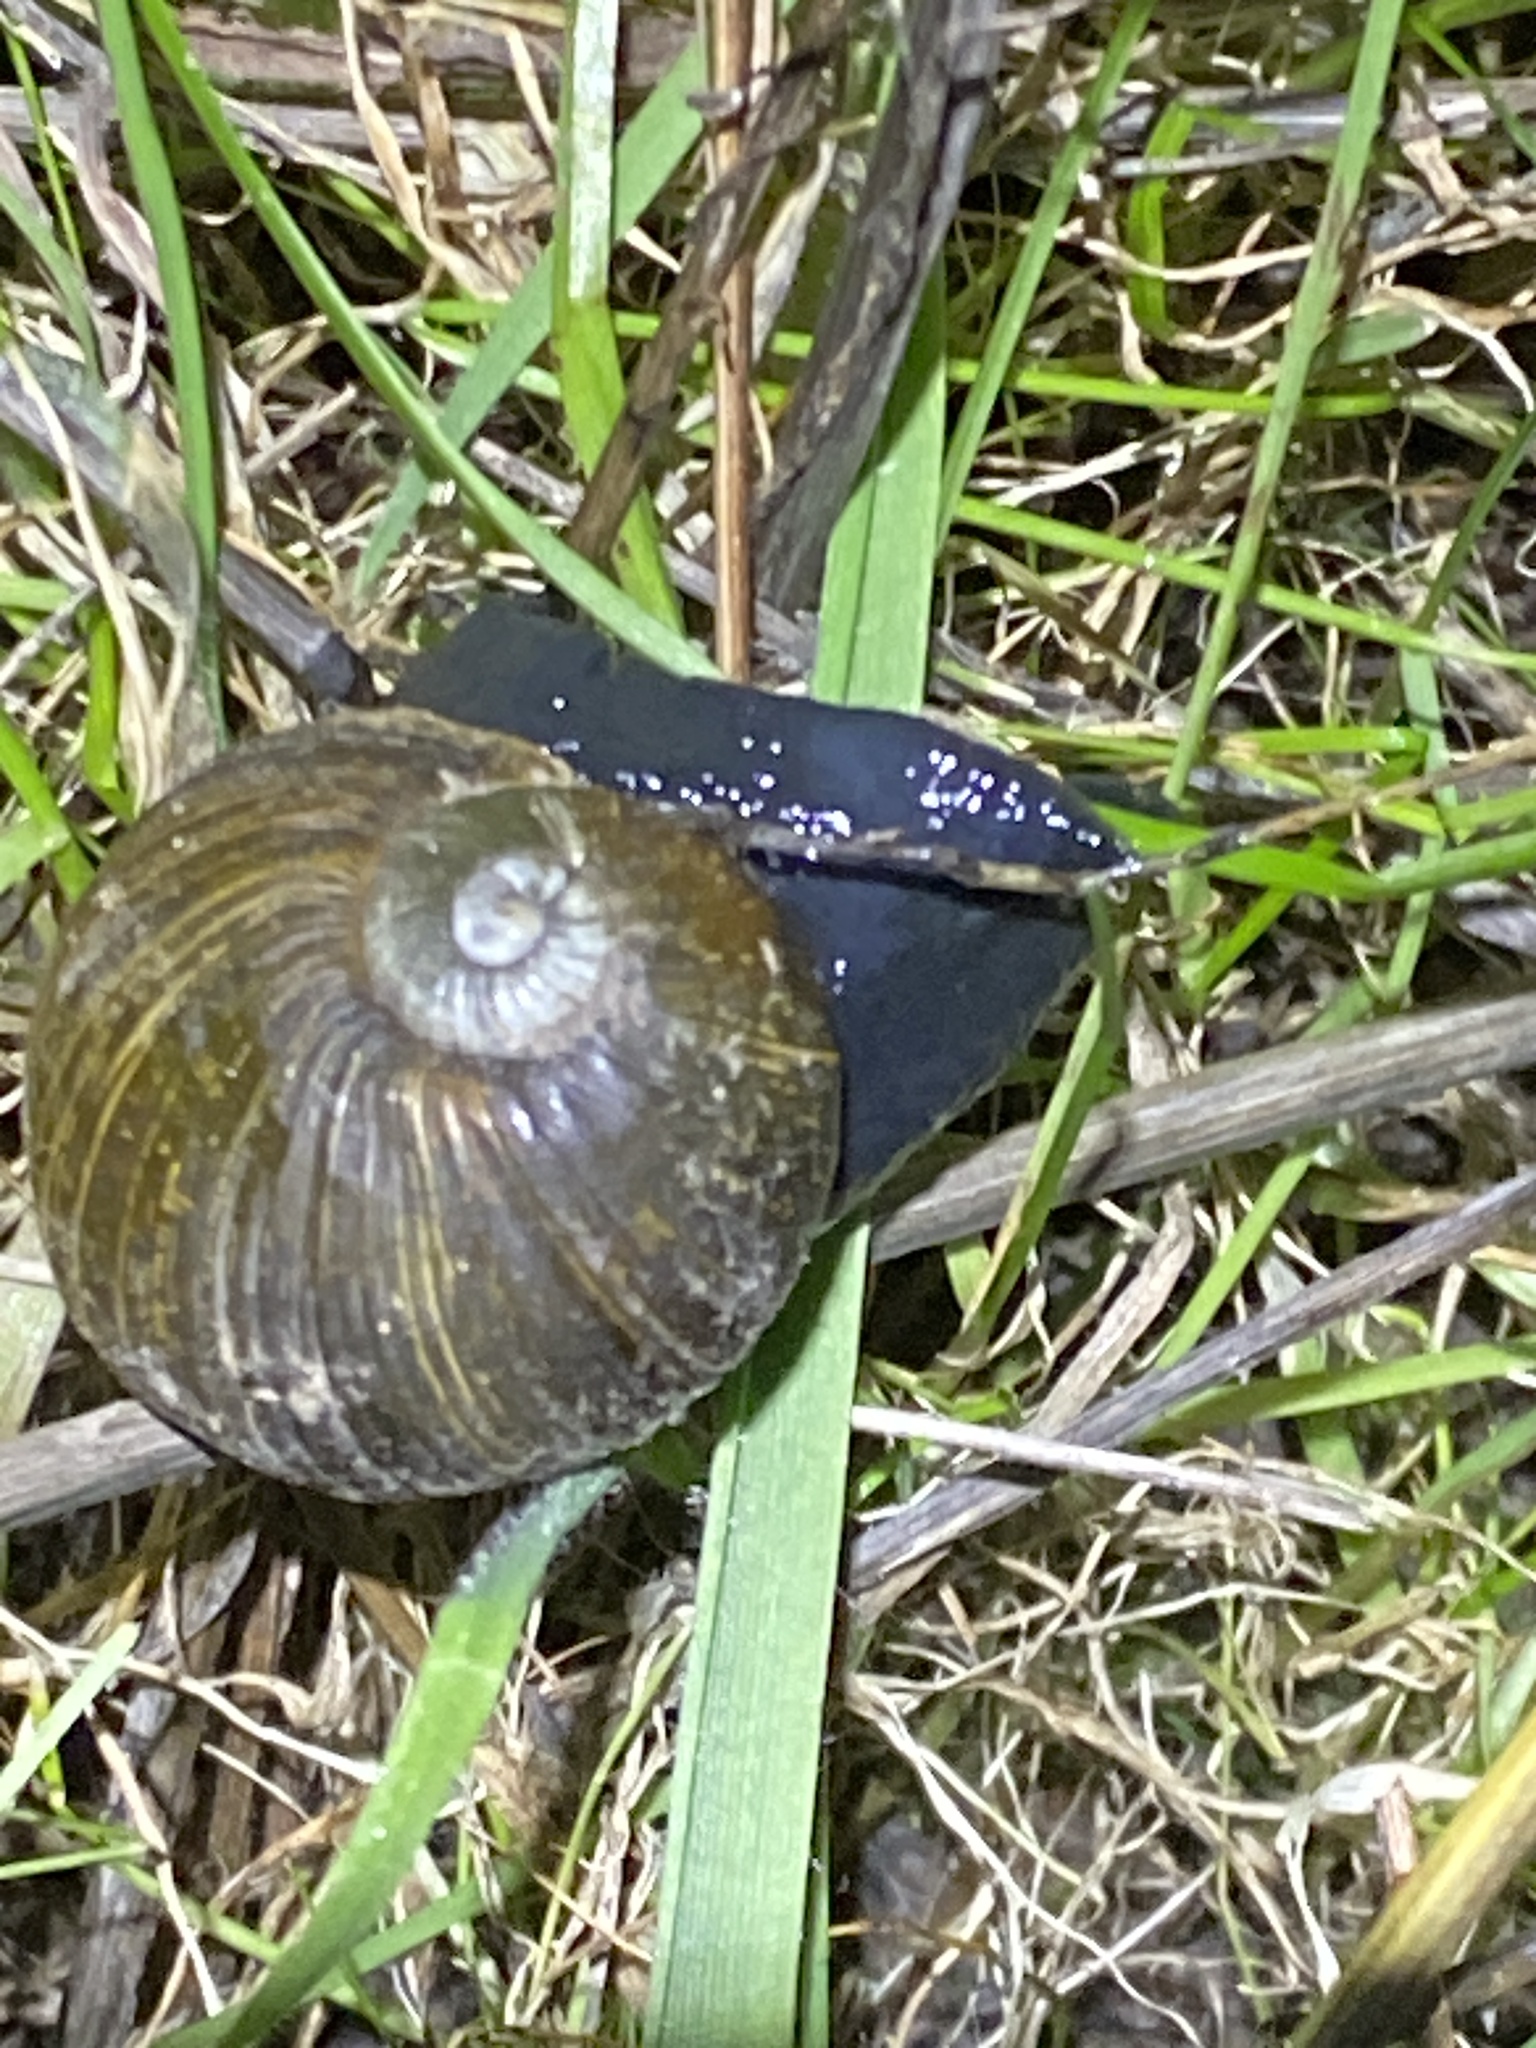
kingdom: Animalia
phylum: Mollusca
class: Gastropoda
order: Stylommatophora
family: Helicidae
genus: Cantareus
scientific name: Cantareus apertus
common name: Green gardensnail
